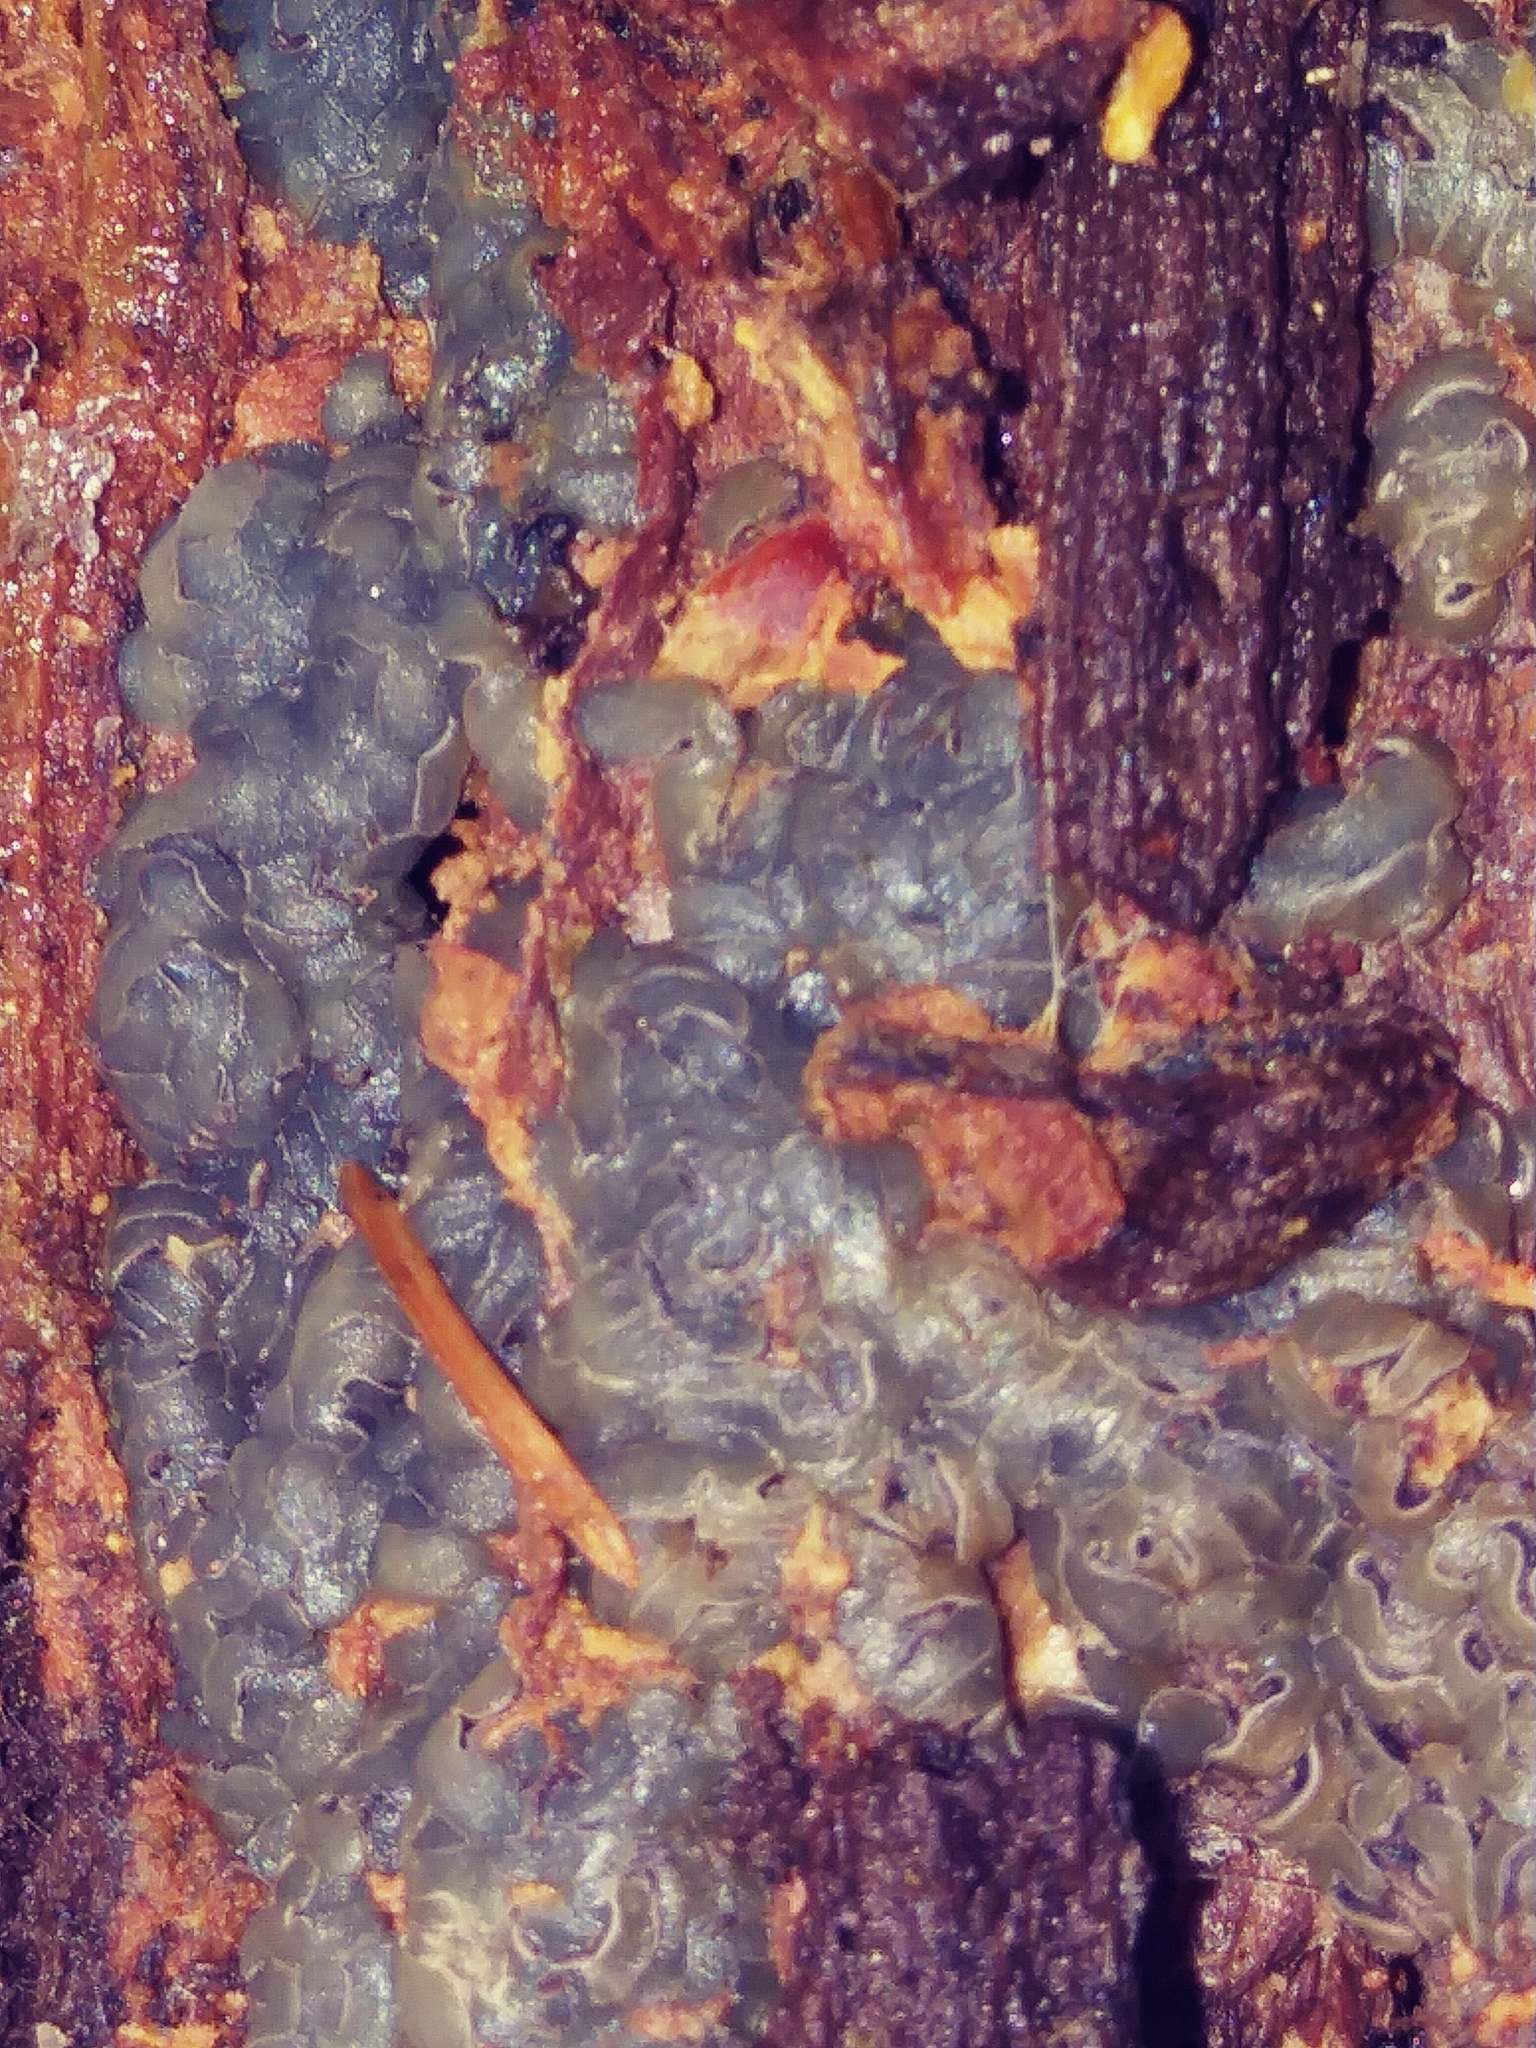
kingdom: Fungi
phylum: Ascomycota
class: Leotiomycetes
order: Helotiales
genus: Angelina
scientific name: Angelina rufescens
